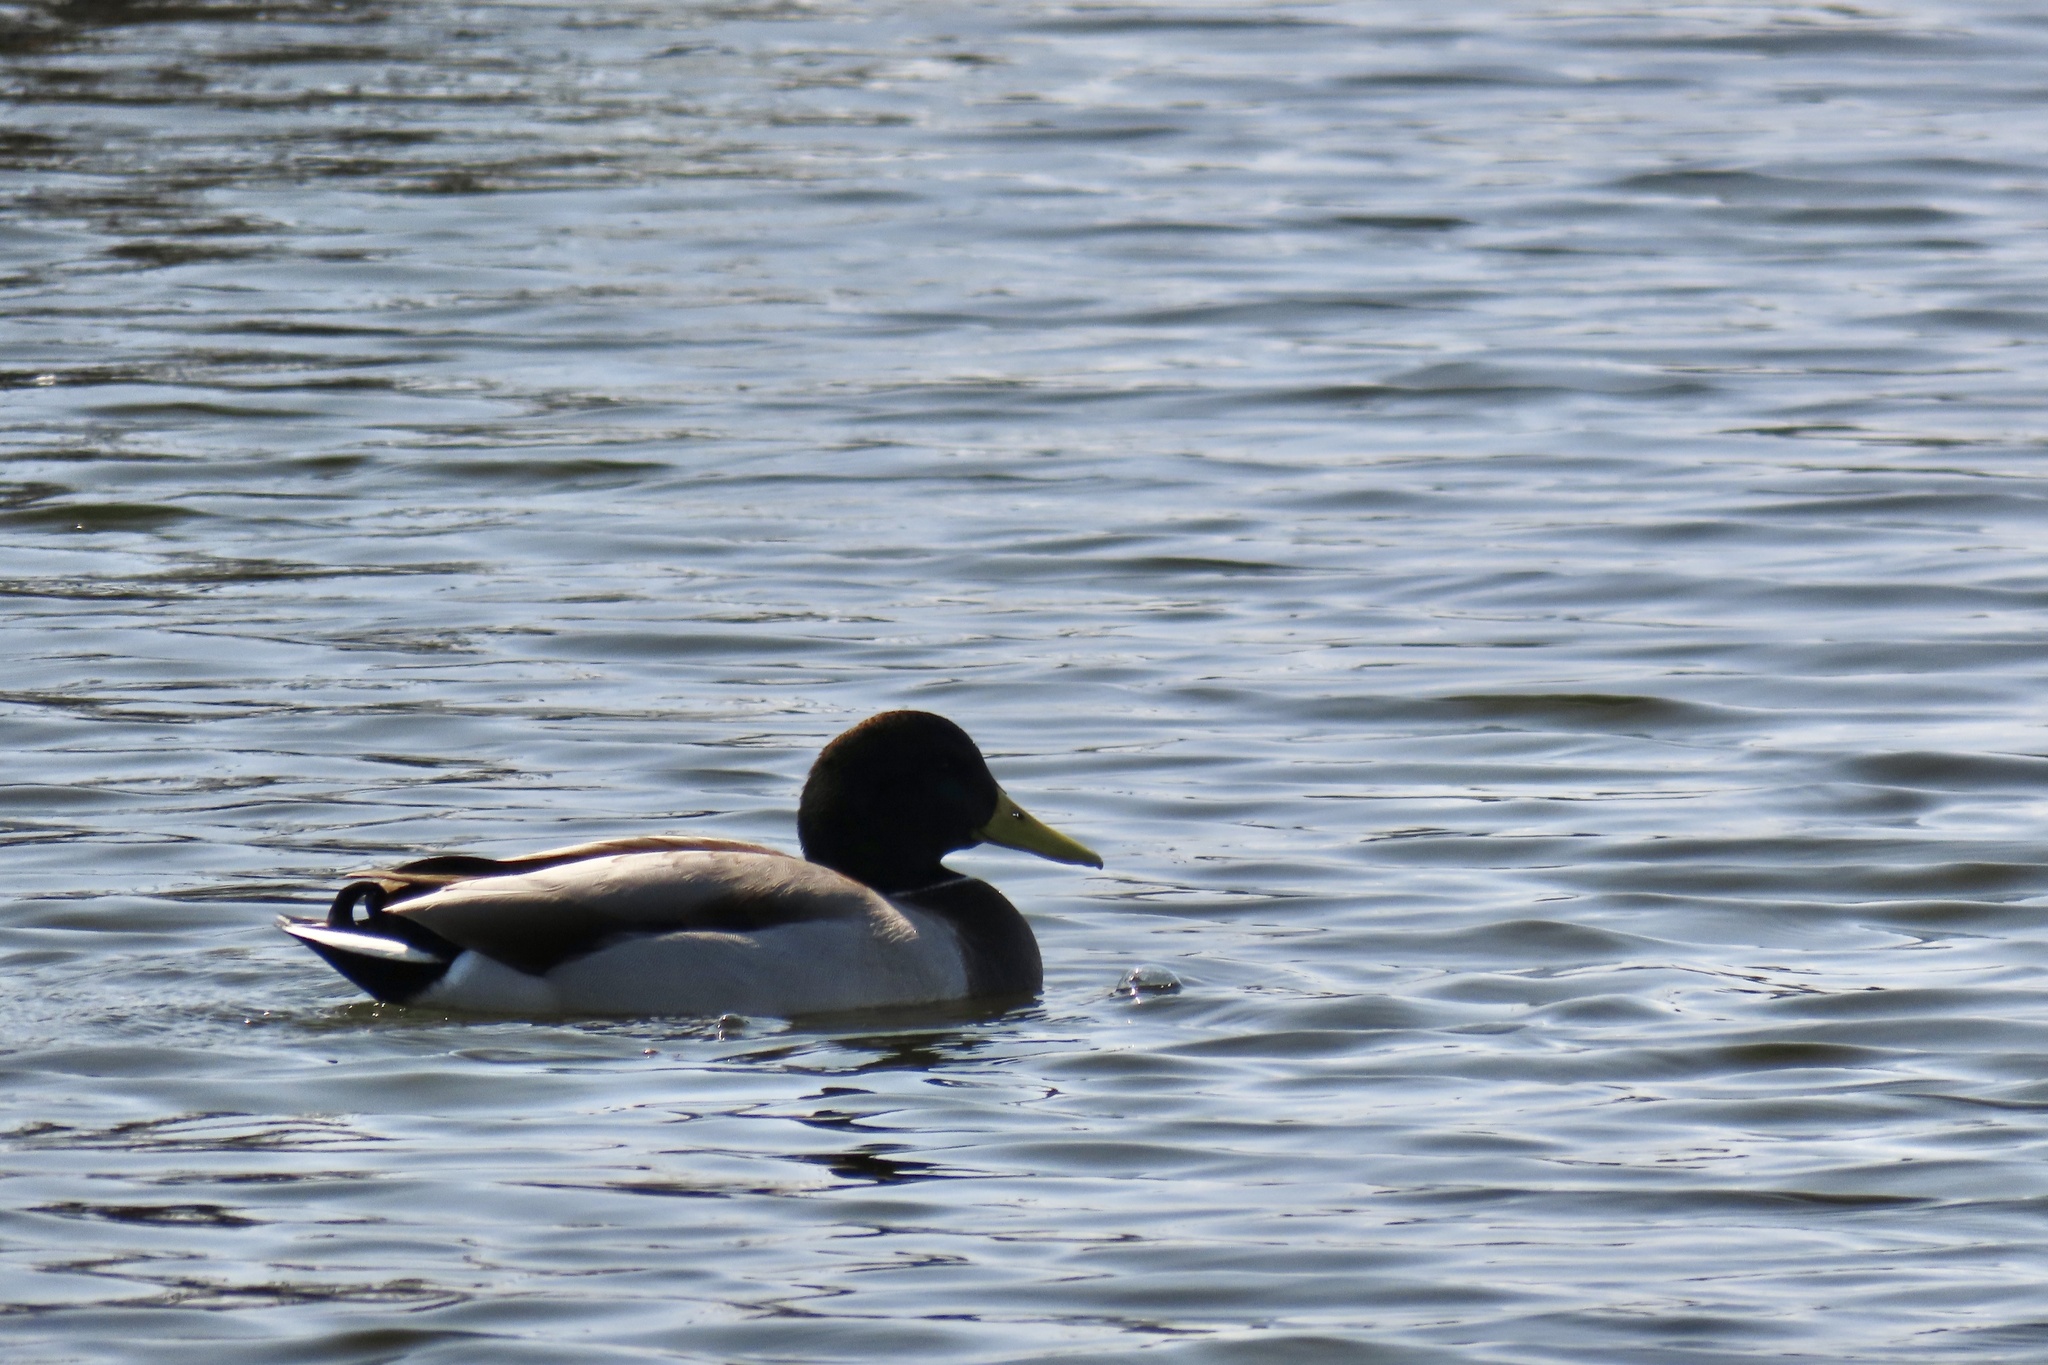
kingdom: Animalia
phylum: Chordata
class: Aves
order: Anseriformes
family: Anatidae
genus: Anas
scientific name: Anas platyrhynchos
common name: Mallard
